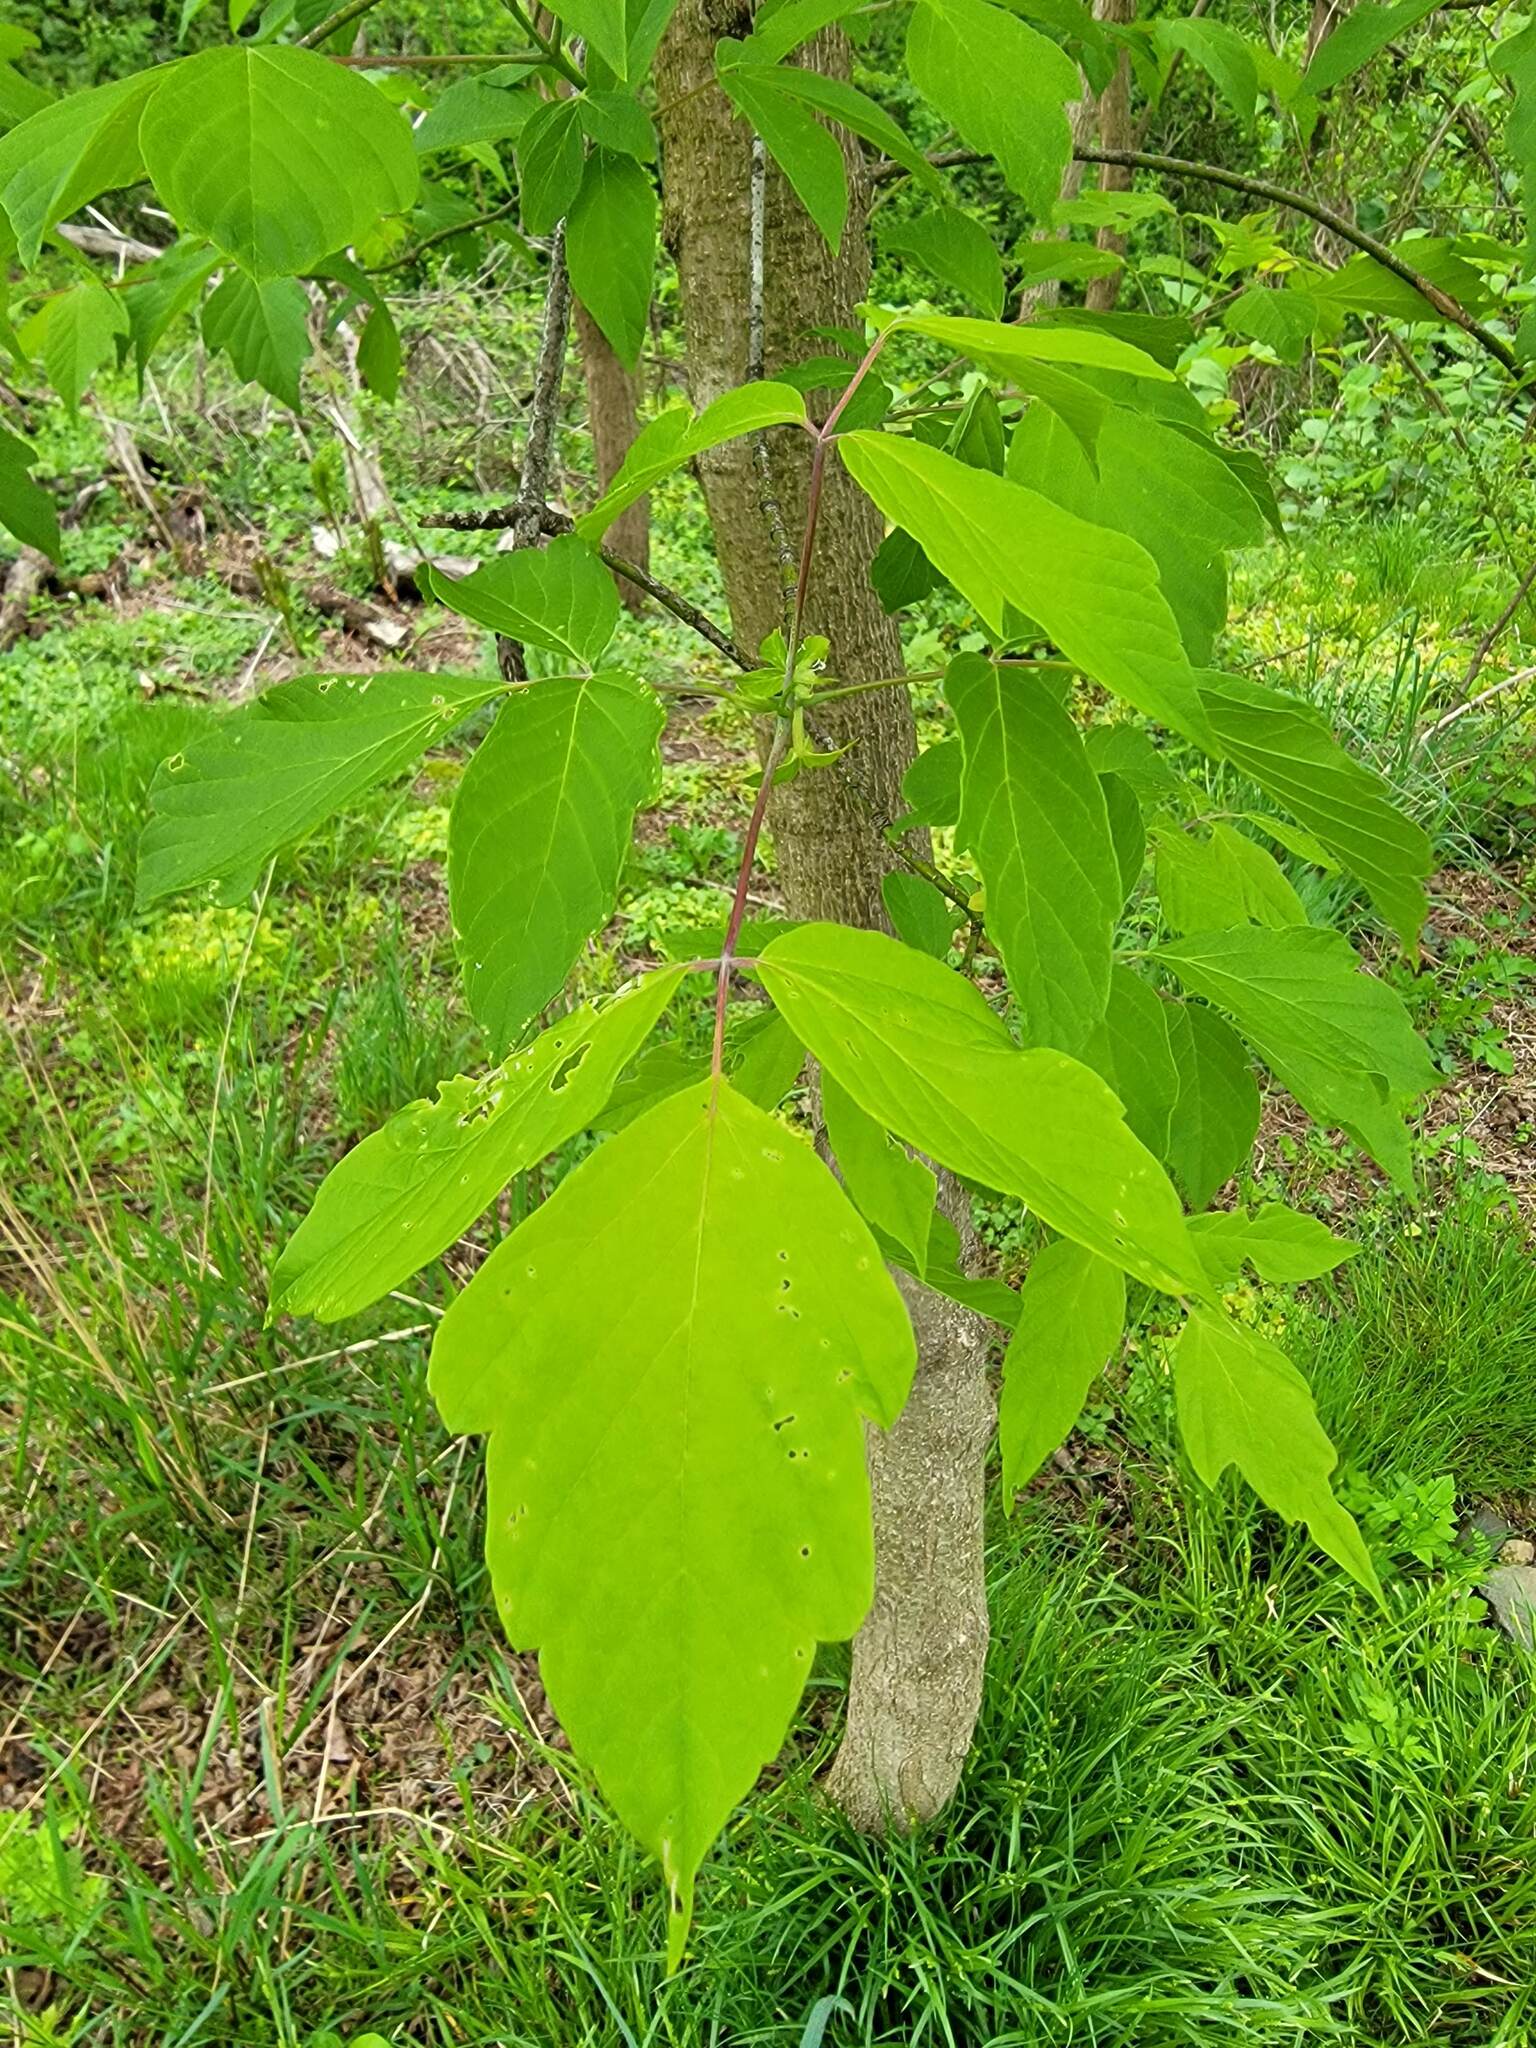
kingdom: Plantae
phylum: Tracheophyta
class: Magnoliopsida
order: Sapindales
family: Sapindaceae
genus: Acer
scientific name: Acer negundo
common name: Ashleaf maple
